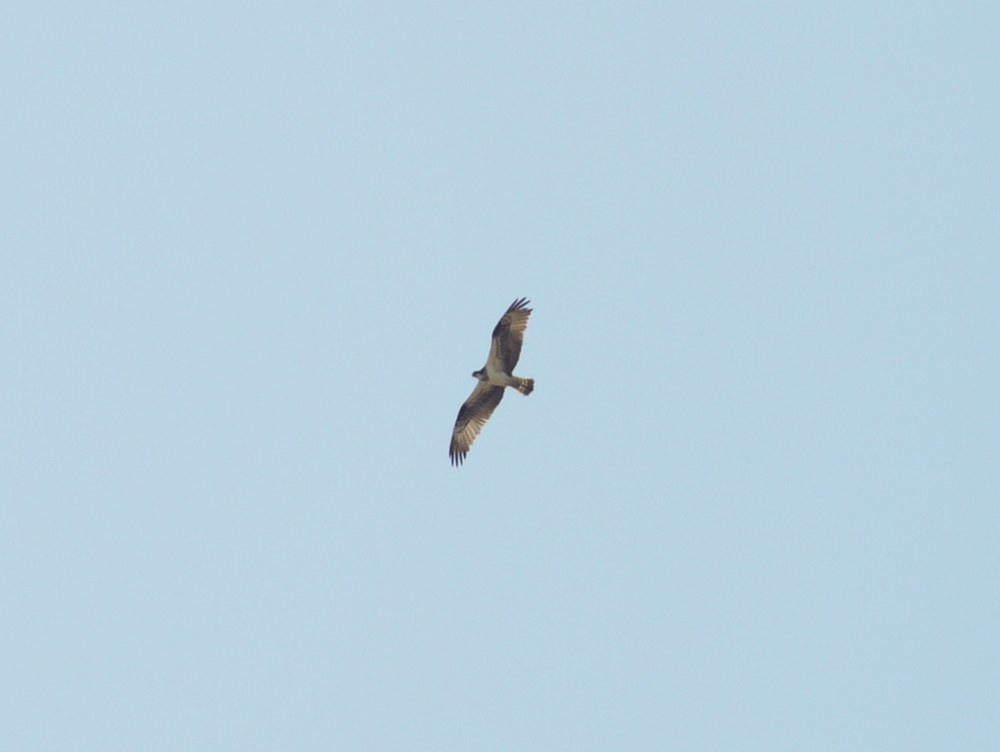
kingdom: Animalia
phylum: Chordata
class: Aves
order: Accipitriformes
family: Pandionidae
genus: Pandion
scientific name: Pandion haliaetus
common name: Osprey
